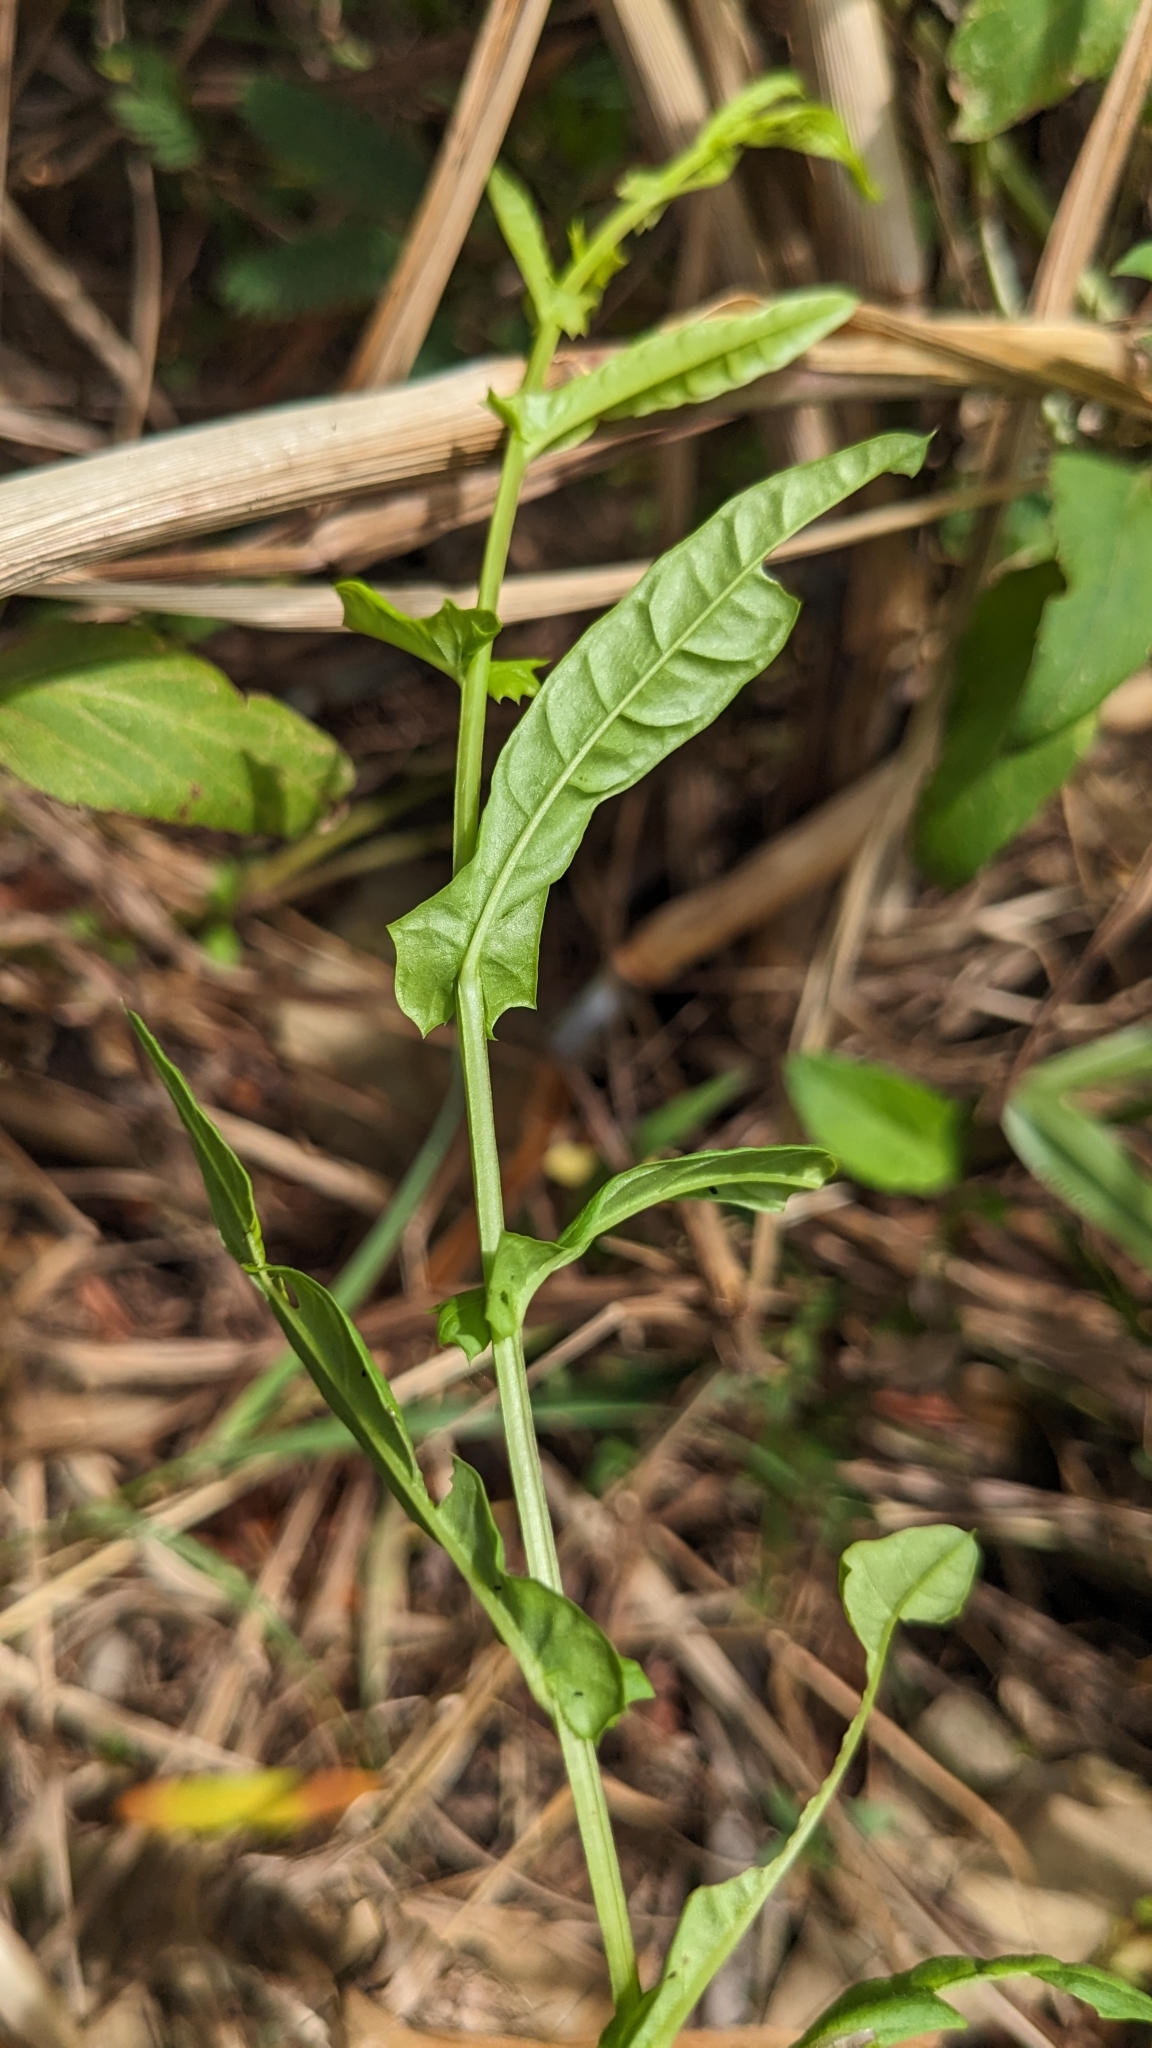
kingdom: Plantae
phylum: Tracheophyta
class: Magnoliopsida
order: Solanales
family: Convolvulaceae
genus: Xenostegia
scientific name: Xenostegia tridentata
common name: African morningvine
